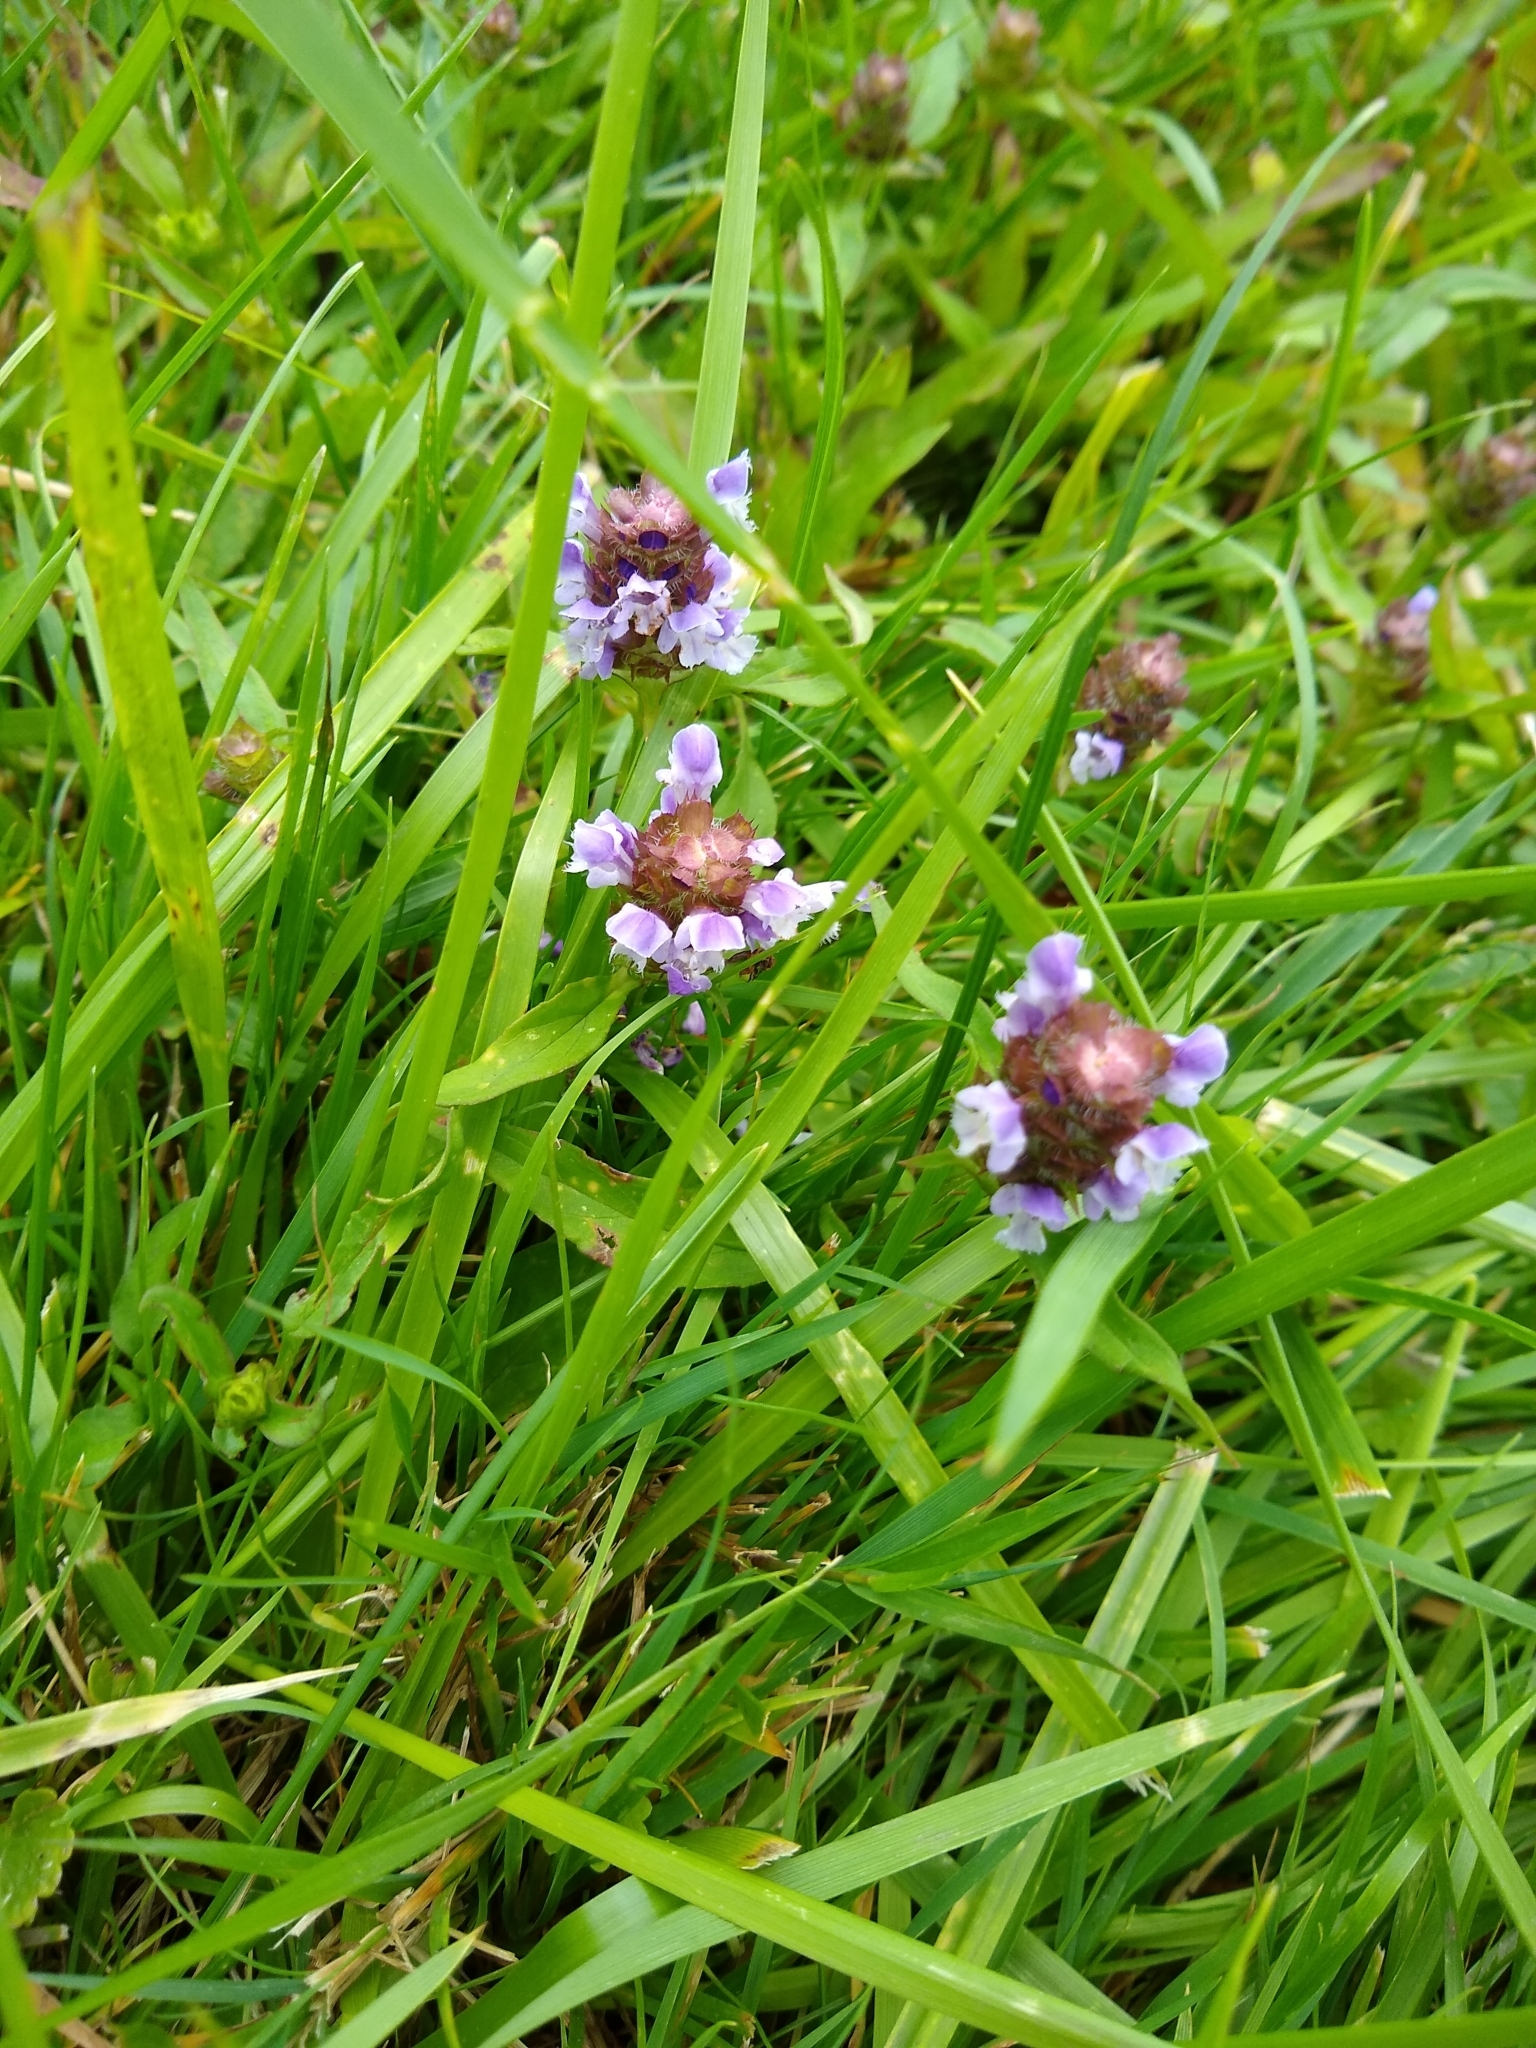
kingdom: Plantae
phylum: Tracheophyta
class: Magnoliopsida
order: Lamiales
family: Lamiaceae
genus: Prunella
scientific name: Prunella vulgaris
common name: Heal-all
